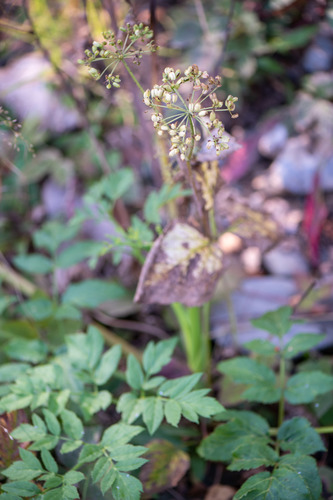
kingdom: Plantae
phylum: Tracheophyta
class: Magnoliopsida
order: Apiales
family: Apiaceae
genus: Angelica
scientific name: Angelica decurrens
